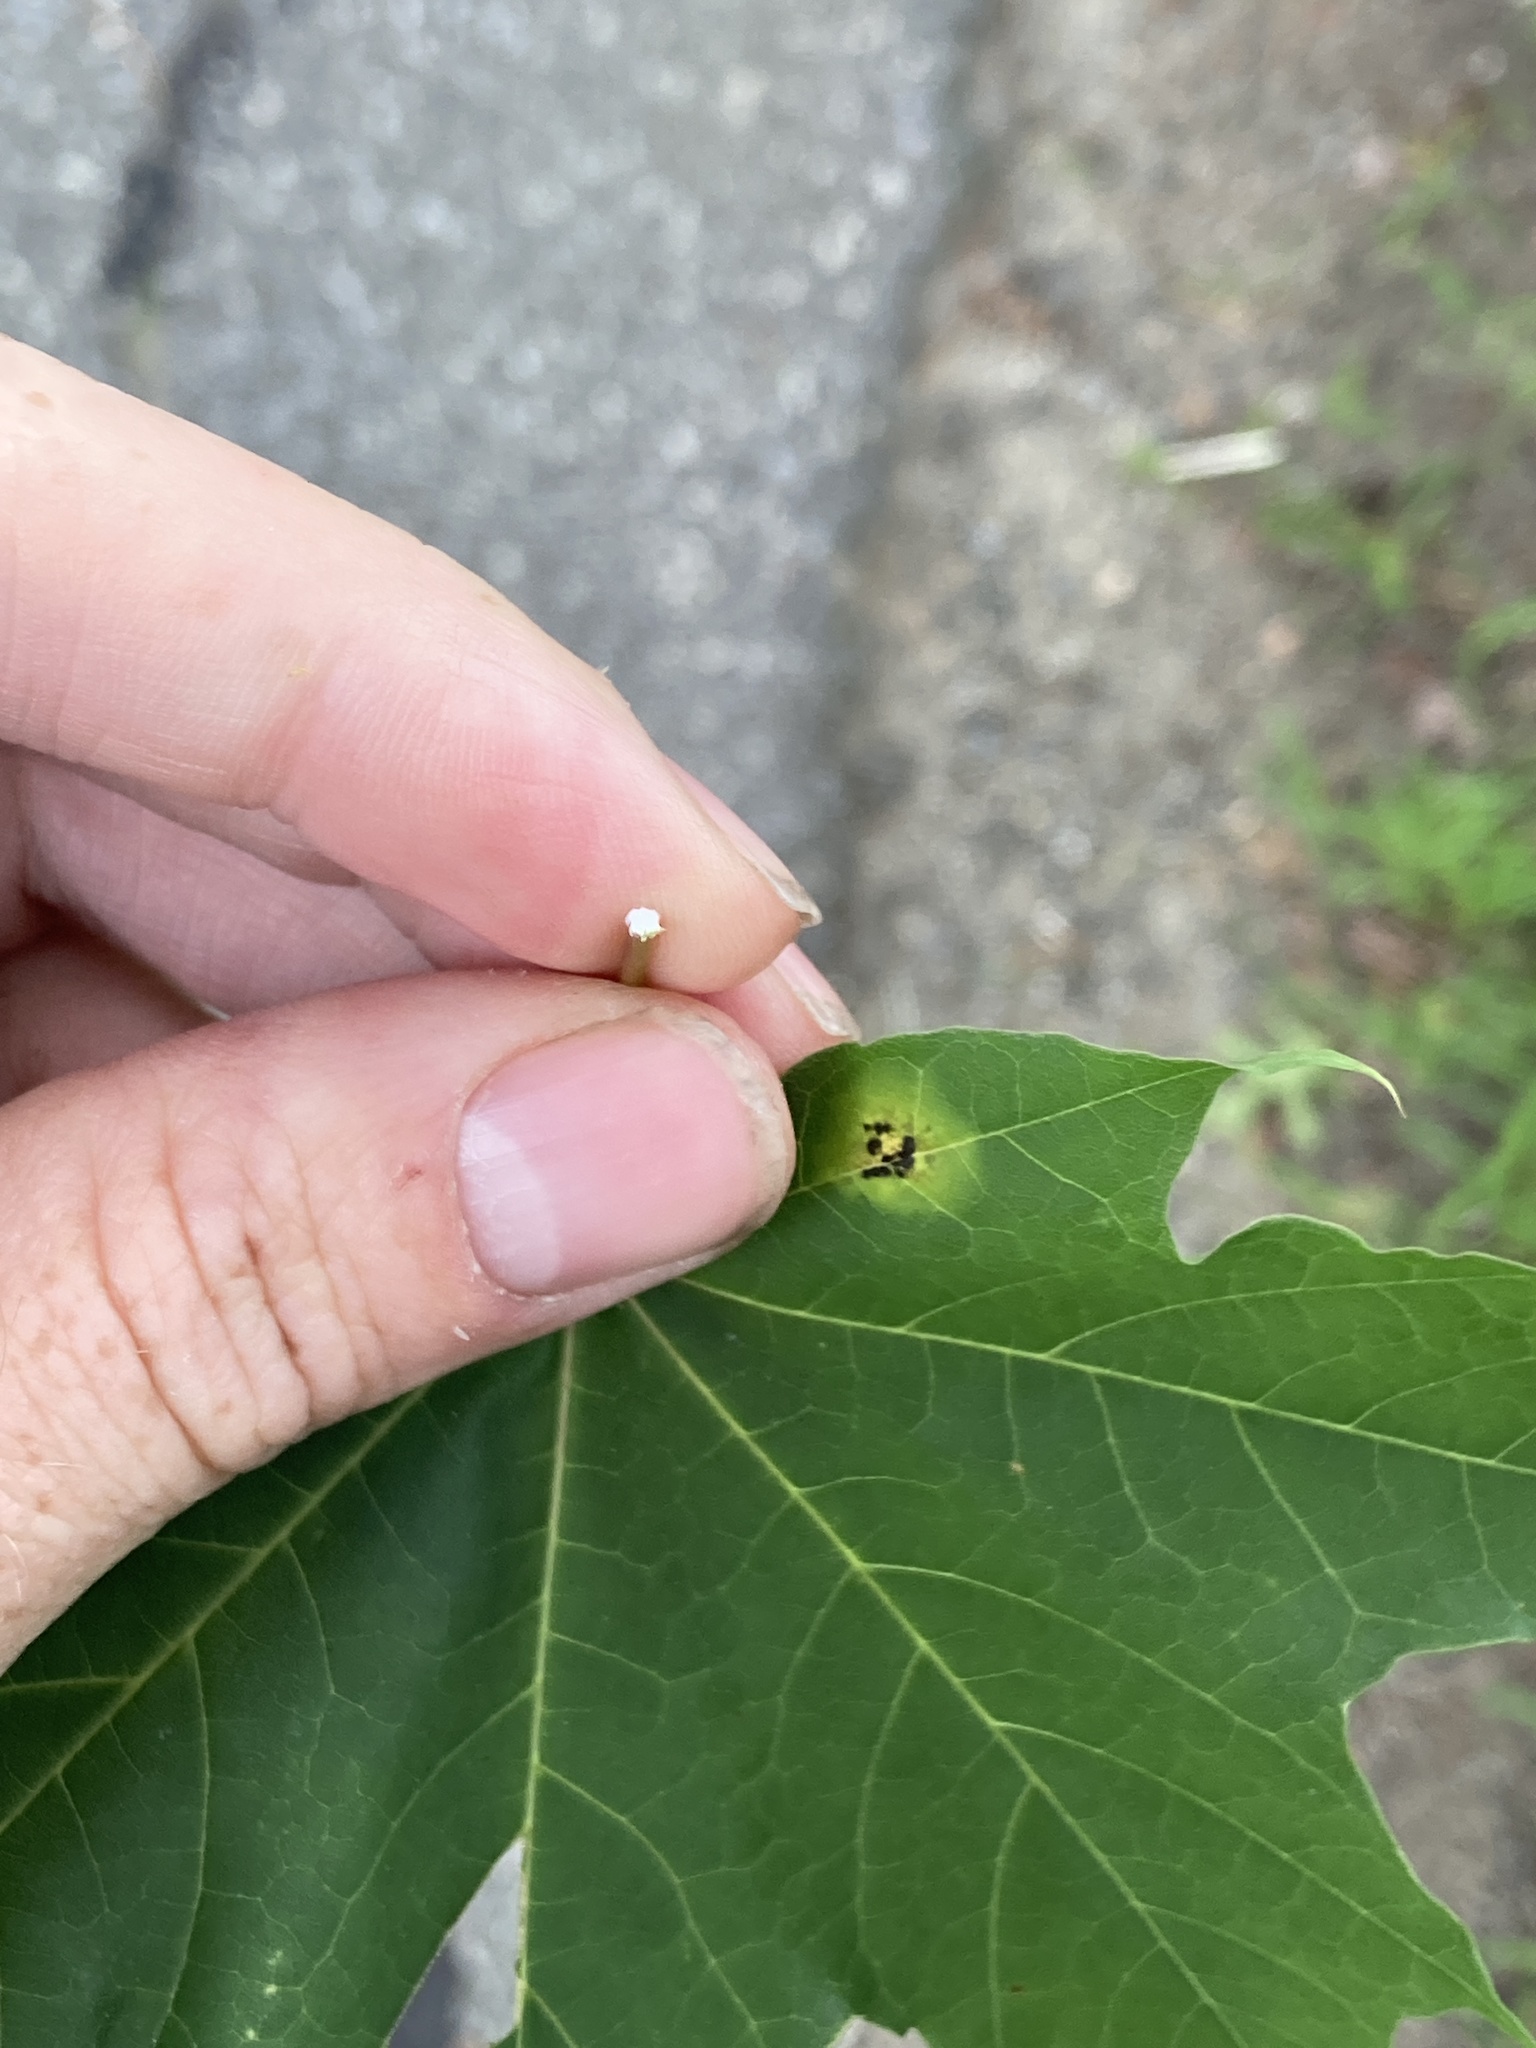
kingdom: Plantae
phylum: Tracheophyta
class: Magnoliopsida
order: Sapindales
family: Sapindaceae
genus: Acer
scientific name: Acer platanoides
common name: Norway maple
